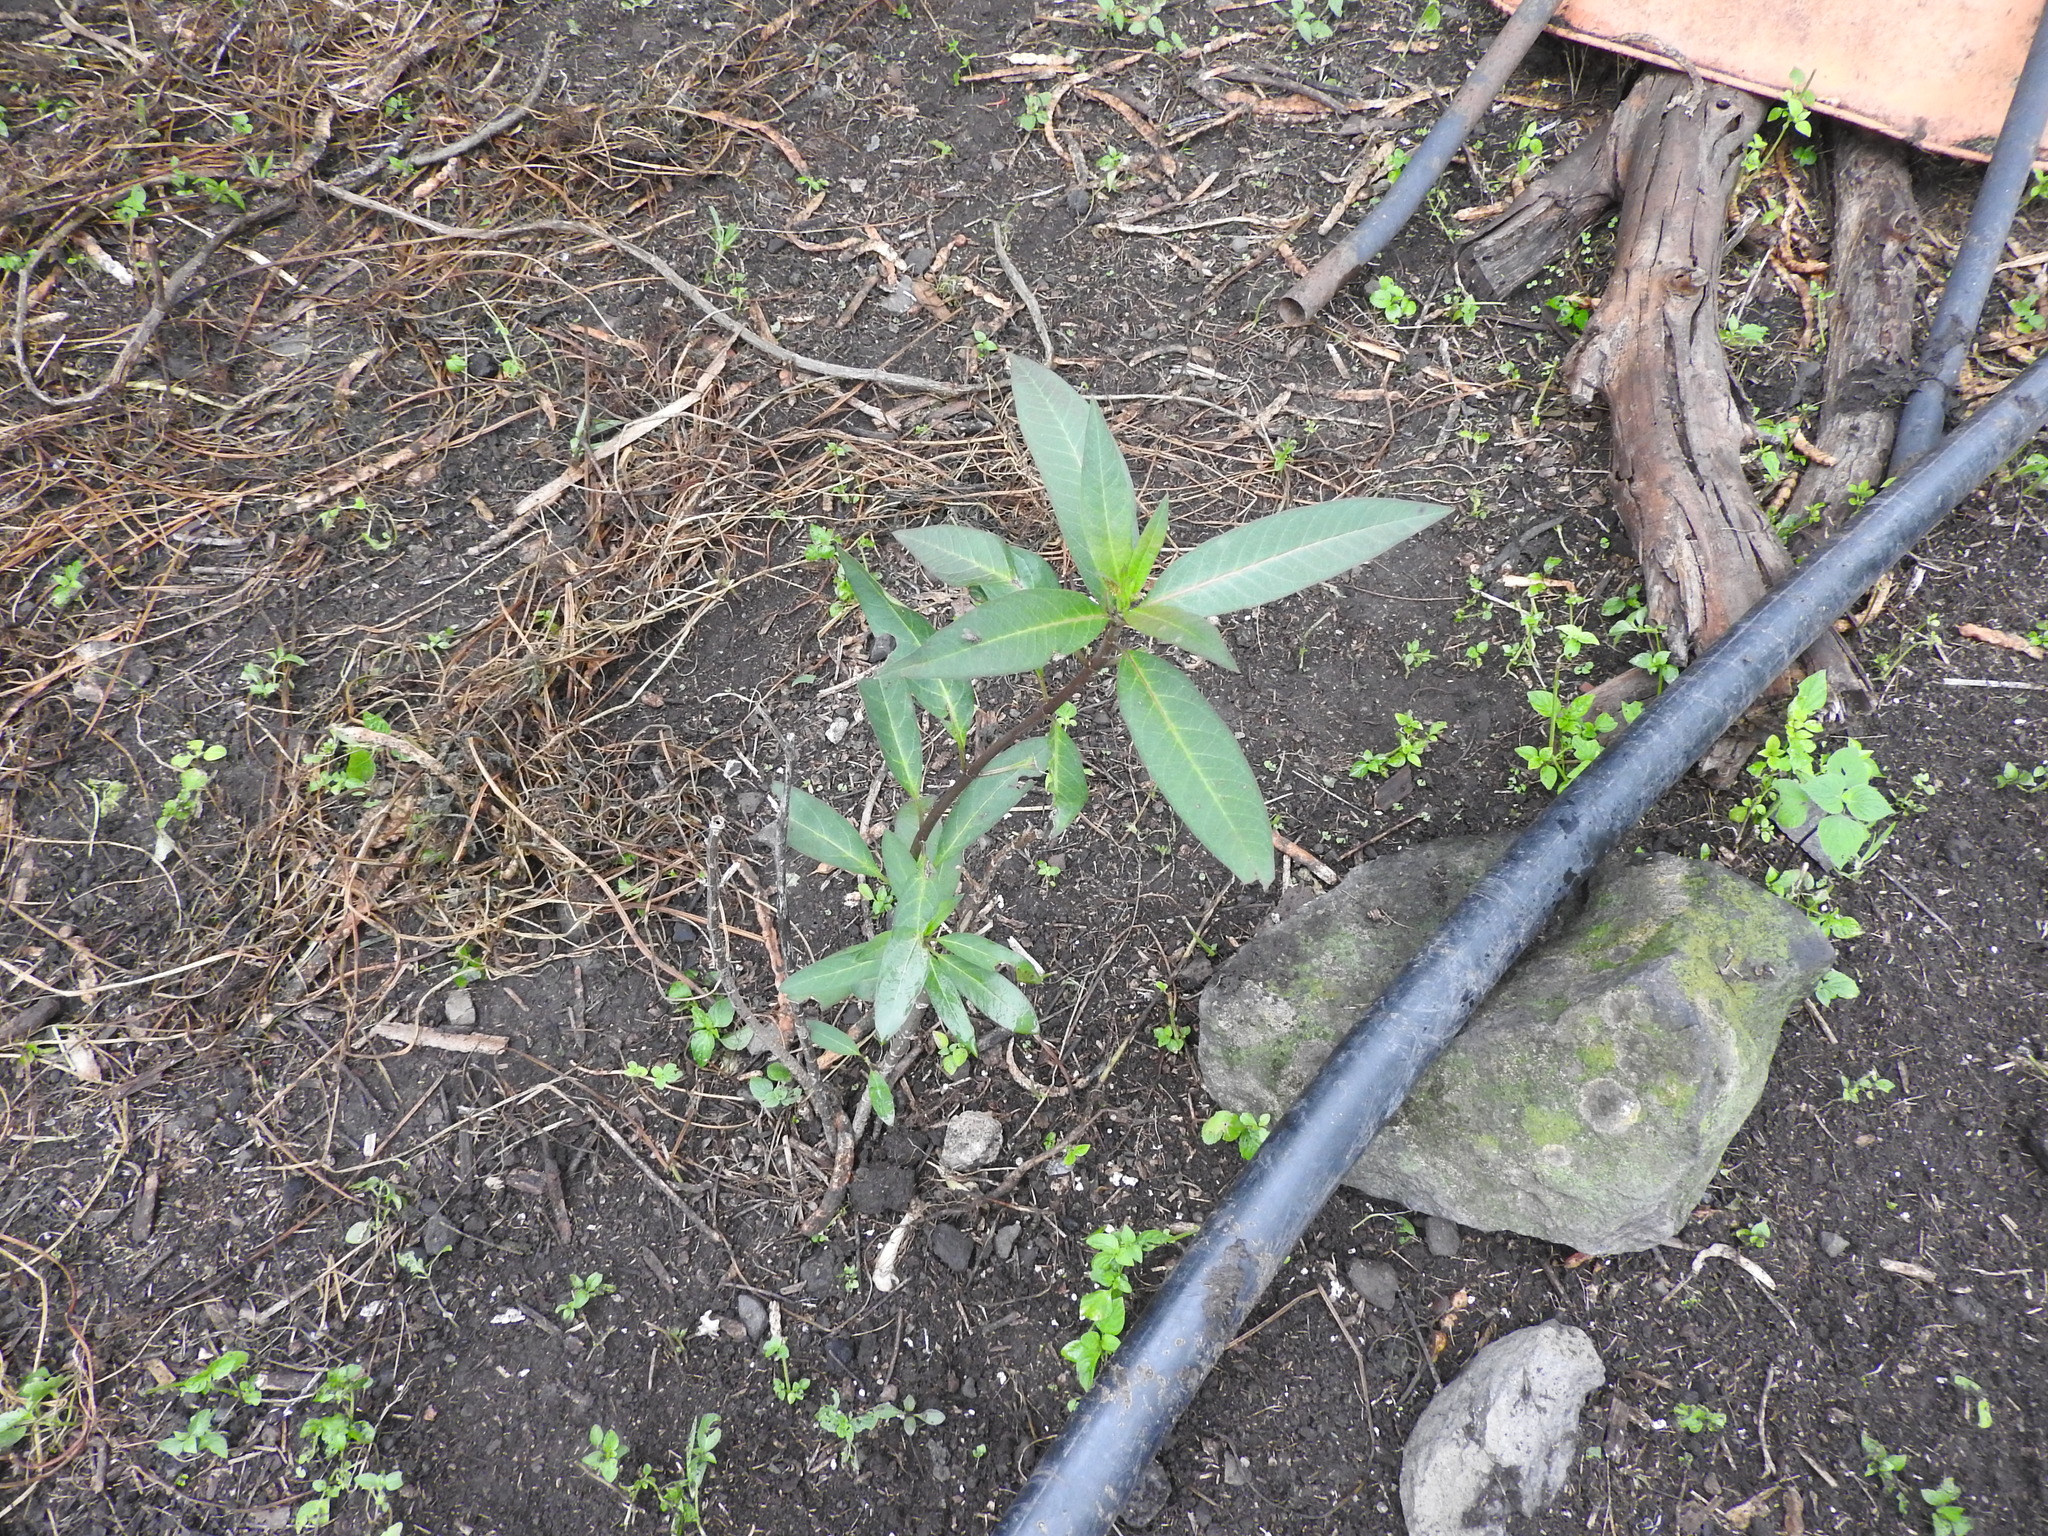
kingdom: Plantae
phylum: Tracheophyta
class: Magnoliopsida
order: Gentianales
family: Apocynaceae
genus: Asclepias
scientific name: Asclepias curassavica
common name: Bloodflower
